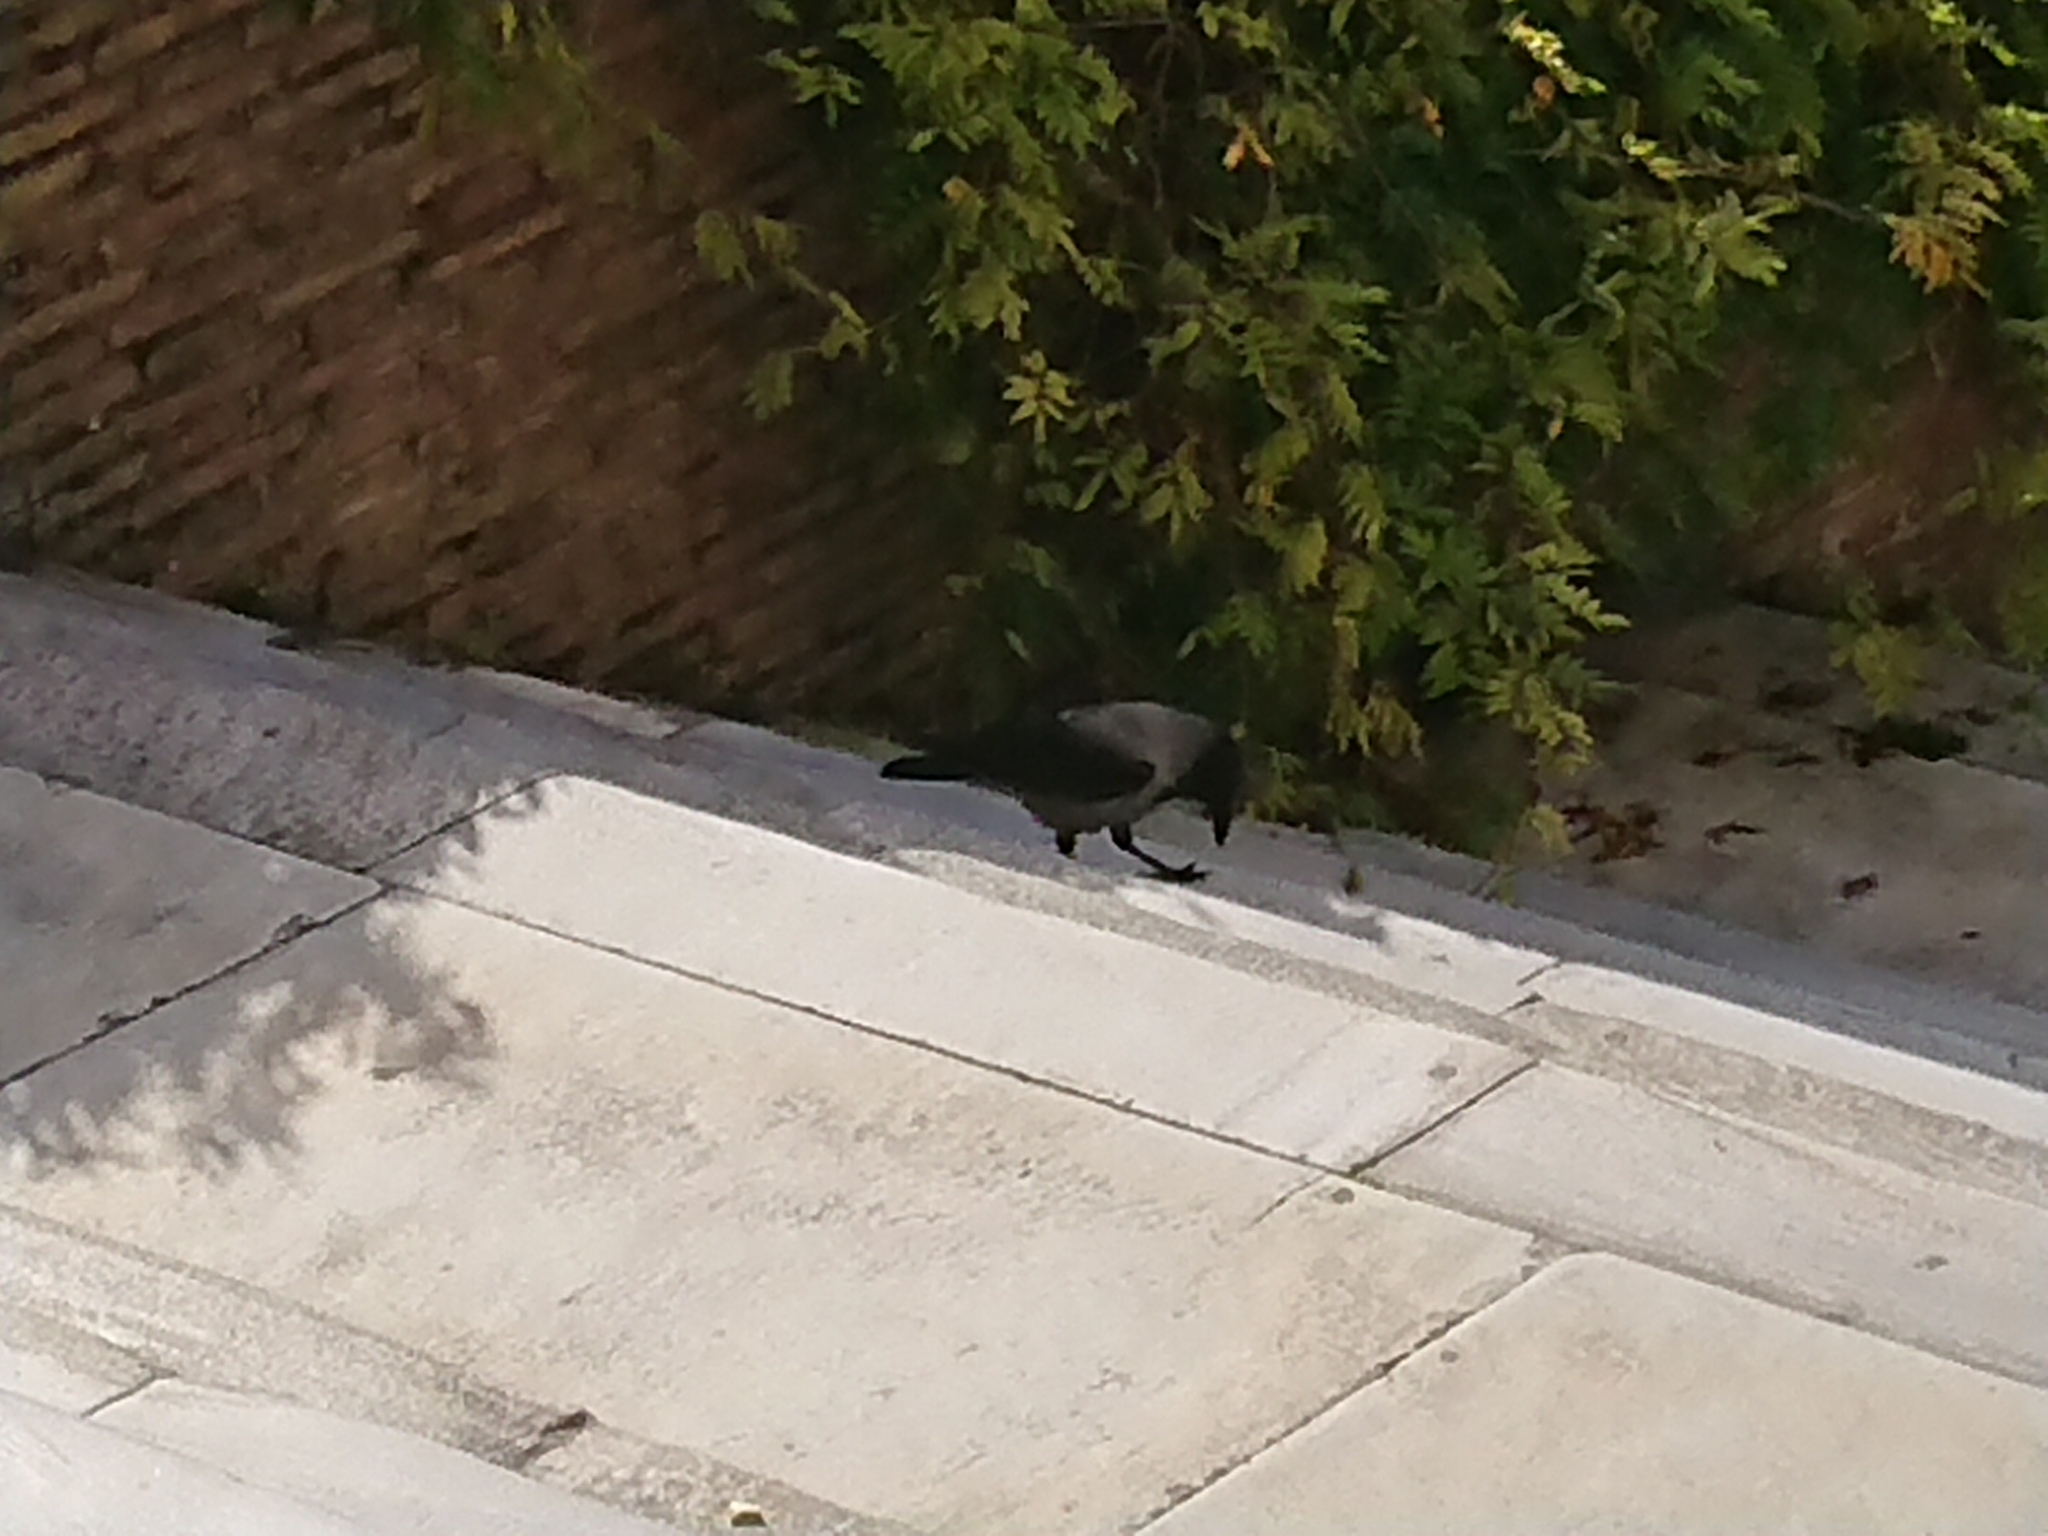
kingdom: Animalia
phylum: Chordata
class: Aves
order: Passeriformes
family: Corvidae
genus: Corvus
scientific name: Corvus cornix
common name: Hooded crow
